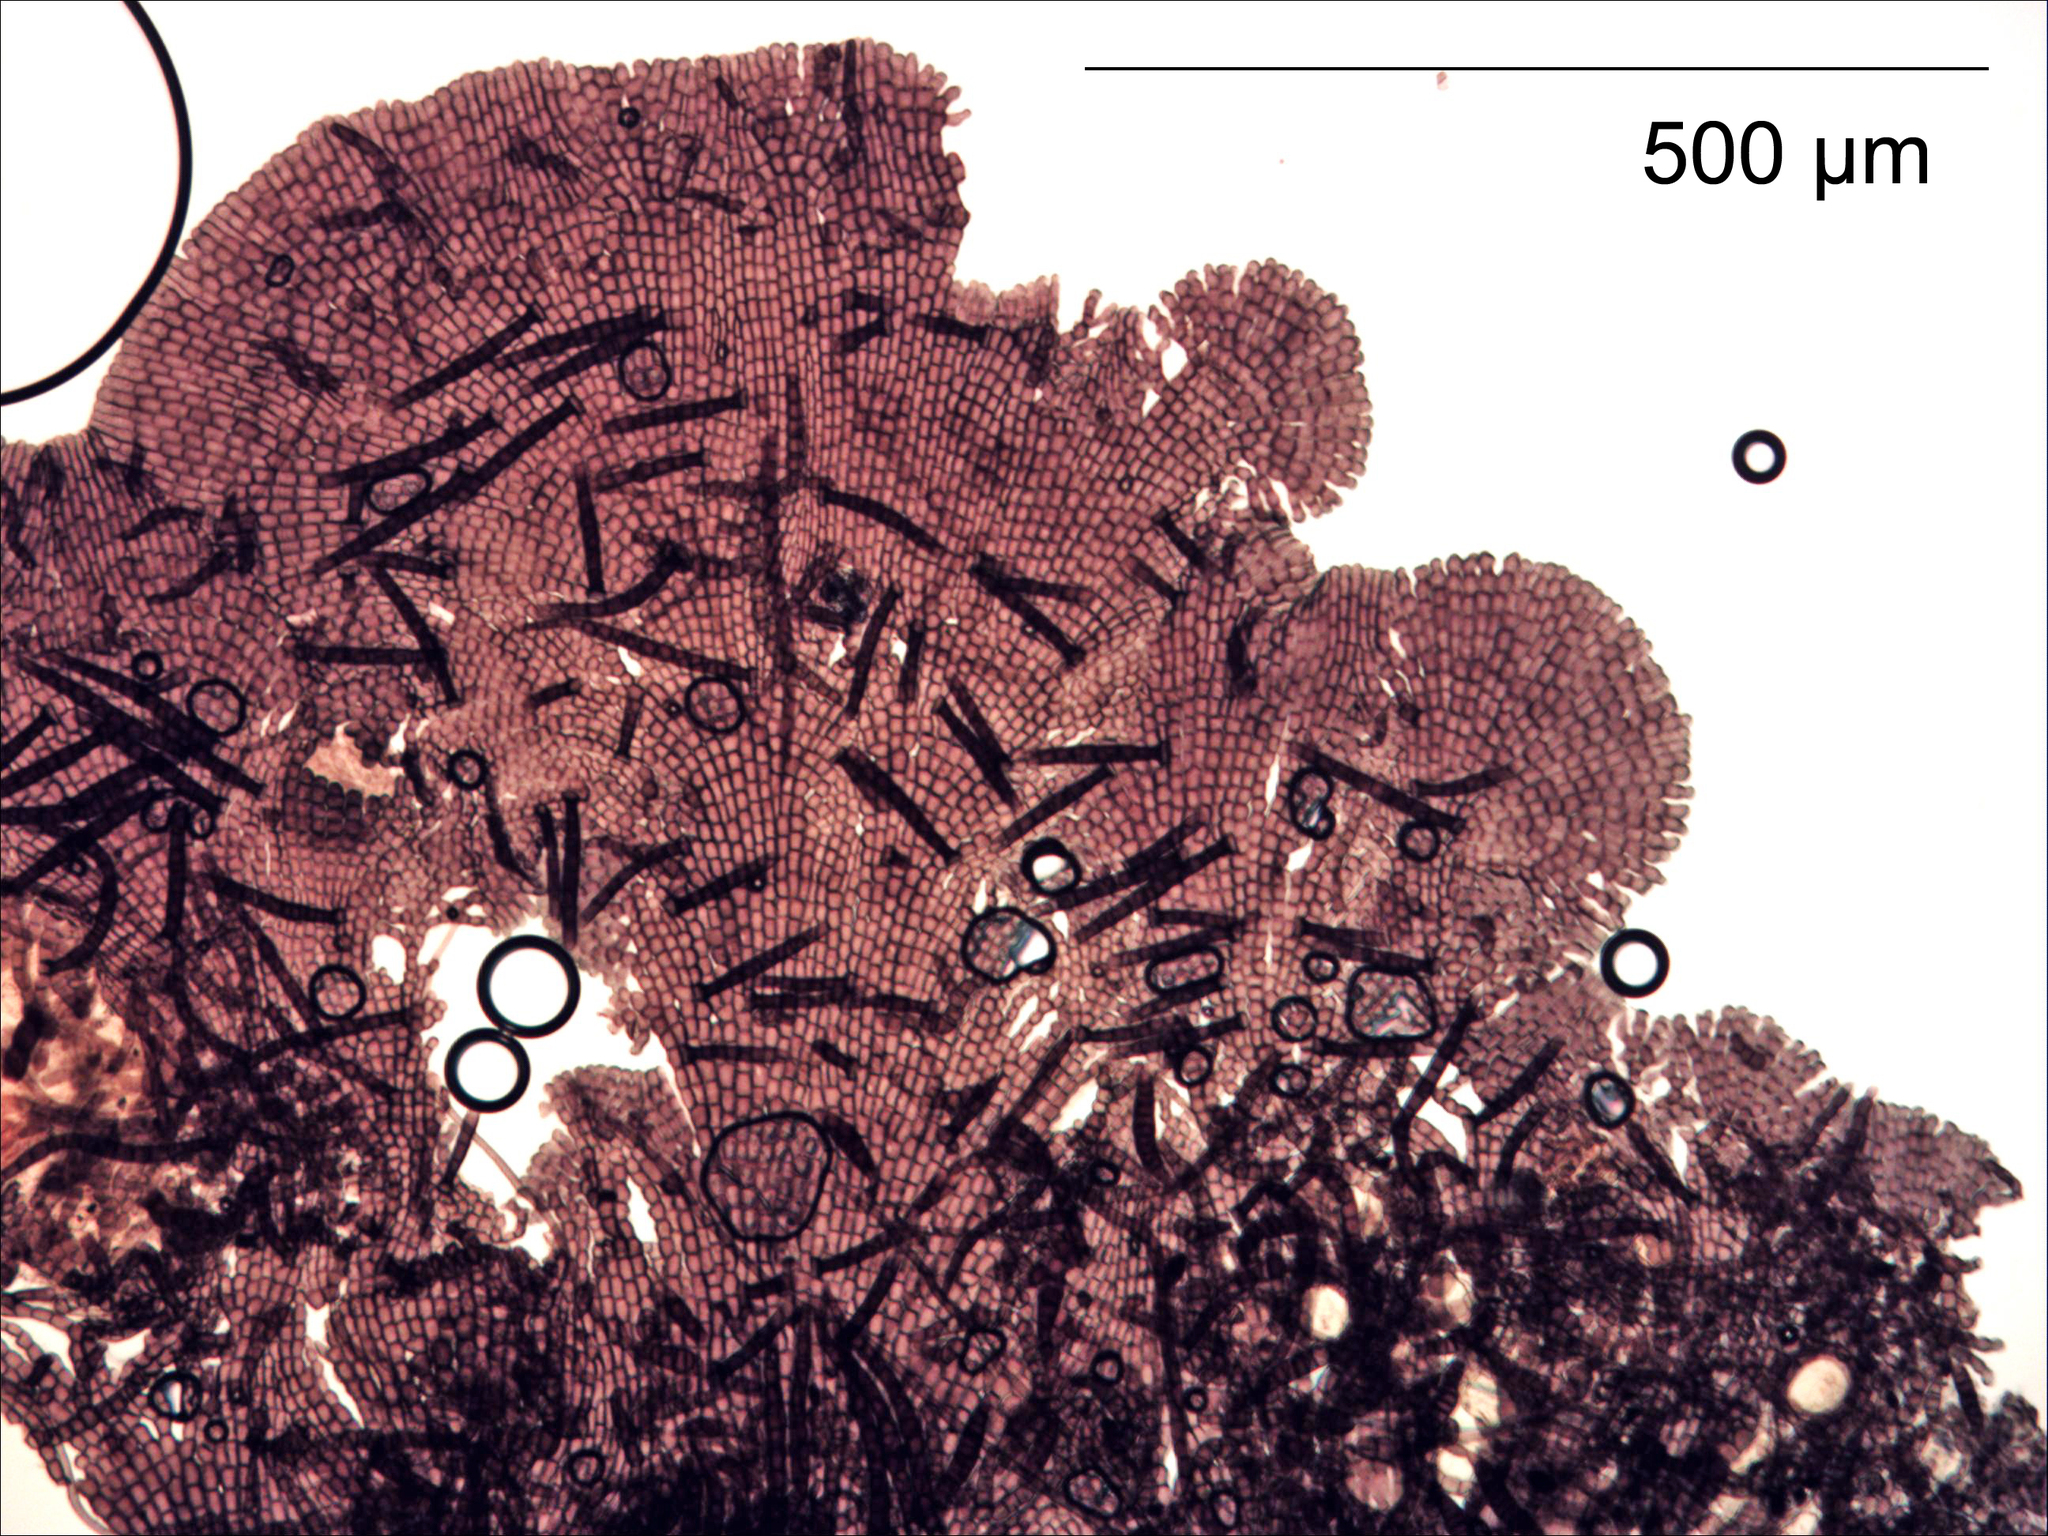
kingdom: Fungi
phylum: Ascomycota
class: Dothideomycetes
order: Capnodiales
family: Euantennariaceae
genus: Trichothallus
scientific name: Trichothallus niger
